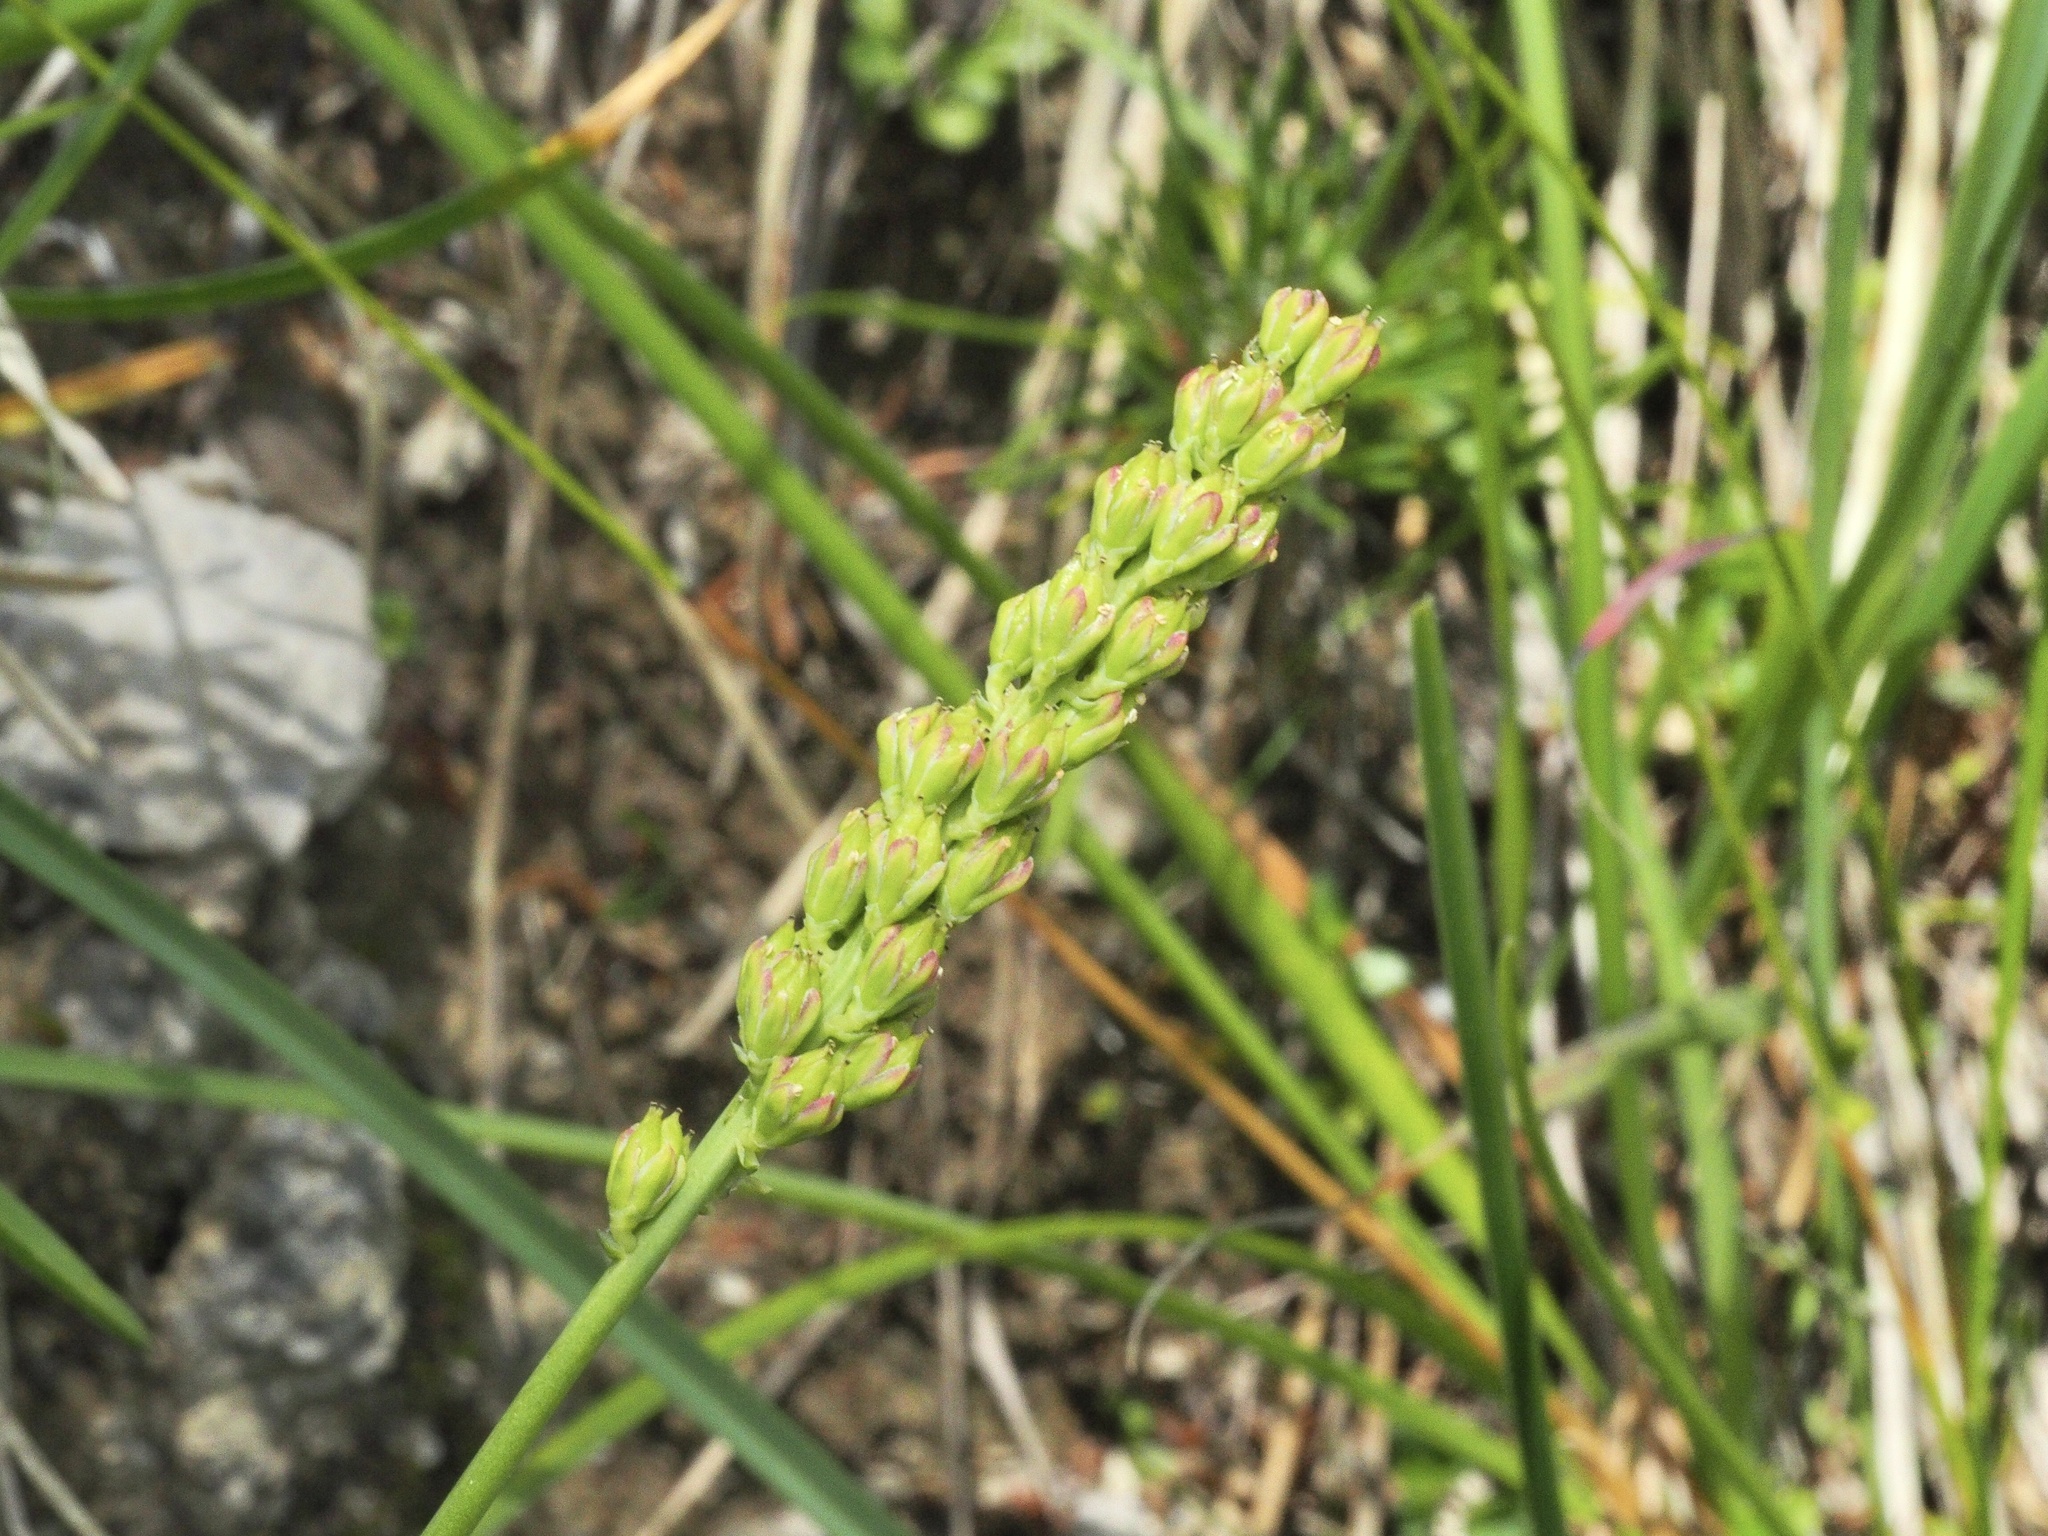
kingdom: Plantae
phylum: Tracheophyta
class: Liliopsida
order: Alismatales
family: Tofieldiaceae
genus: Tofieldia
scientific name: Tofieldia calyculata
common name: German-asphodel
